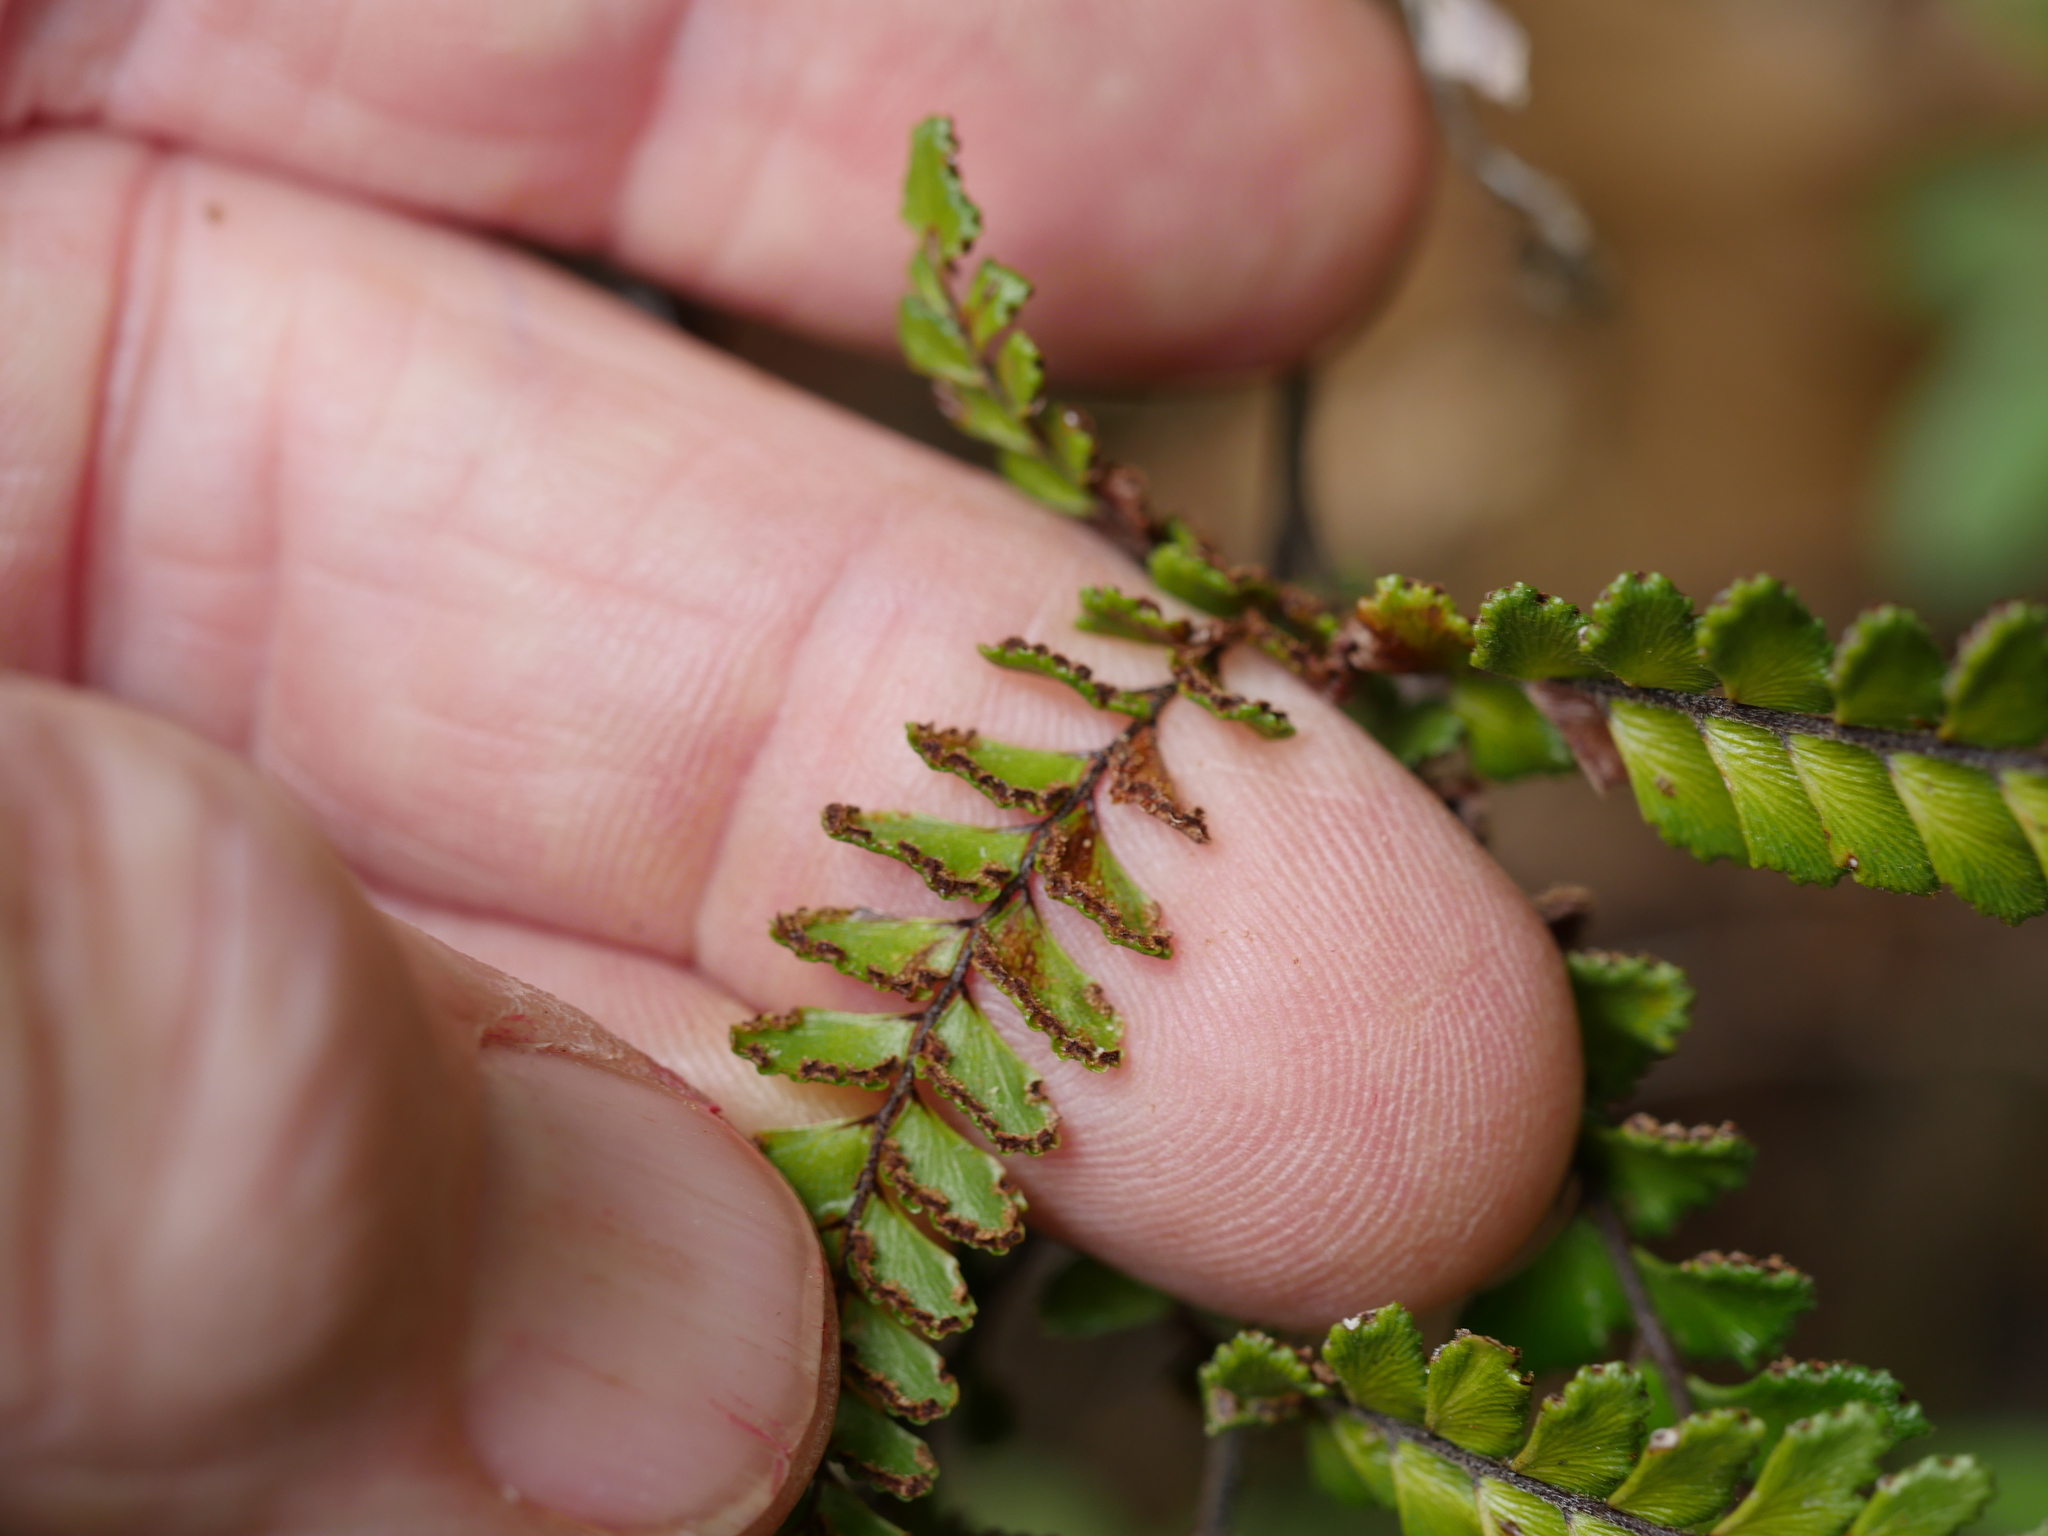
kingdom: Plantae
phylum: Tracheophyta
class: Polypodiopsida
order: Polypodiales
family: Pteridaceae
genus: Adiantum
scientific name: Adiantum hispidulum
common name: Rough maidenhair
